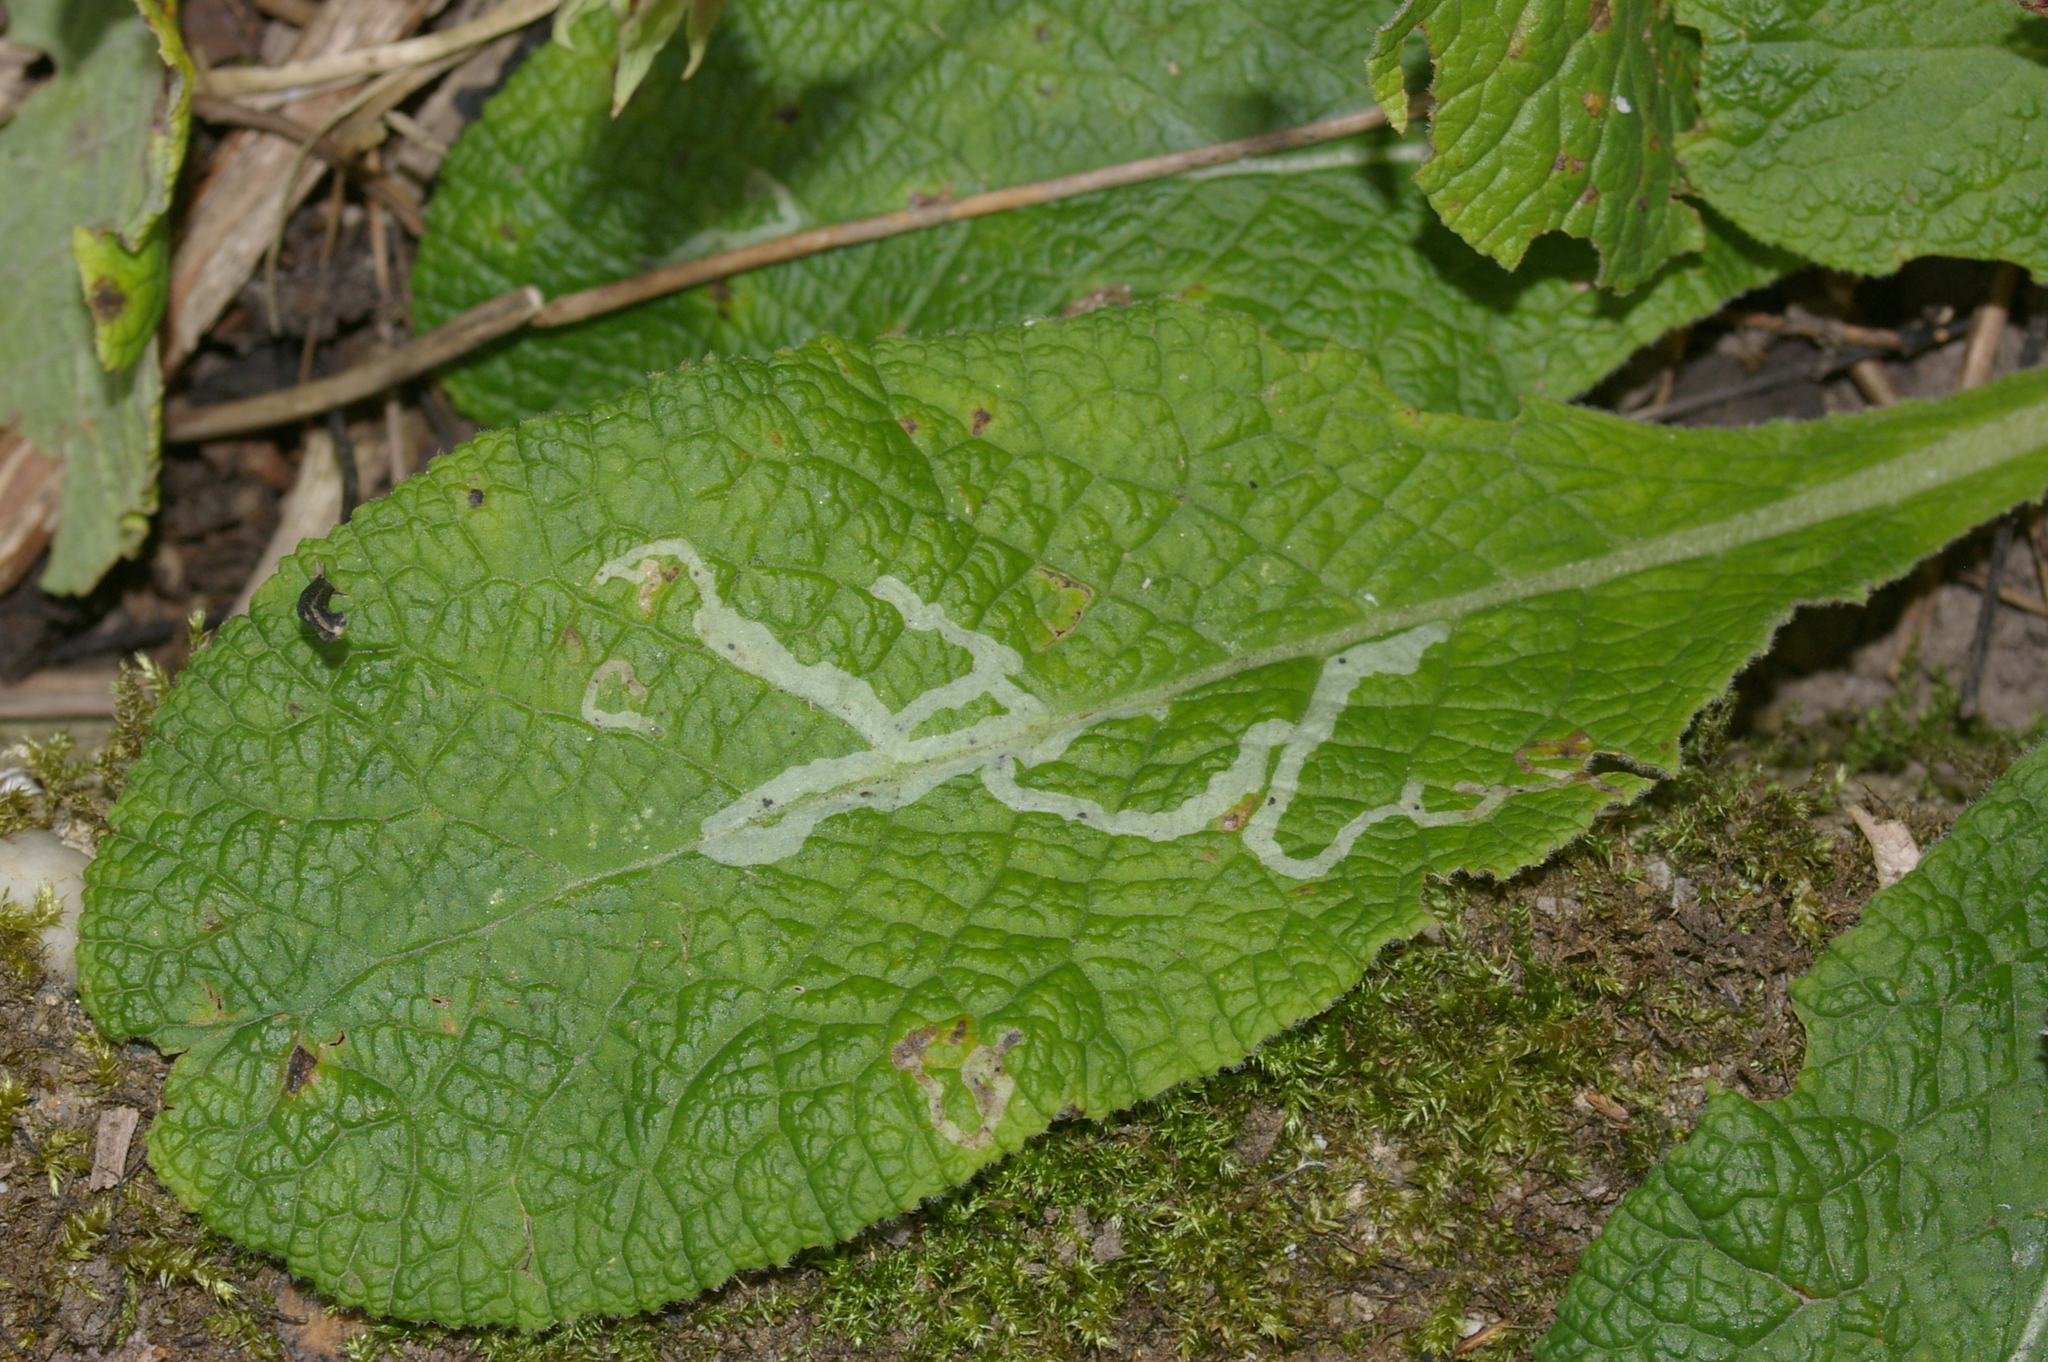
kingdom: Animalia
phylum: Arthropoda
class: Insecta
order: Diptera
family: Agromyzidae
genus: Phytomyza
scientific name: Phytomyza primulae
